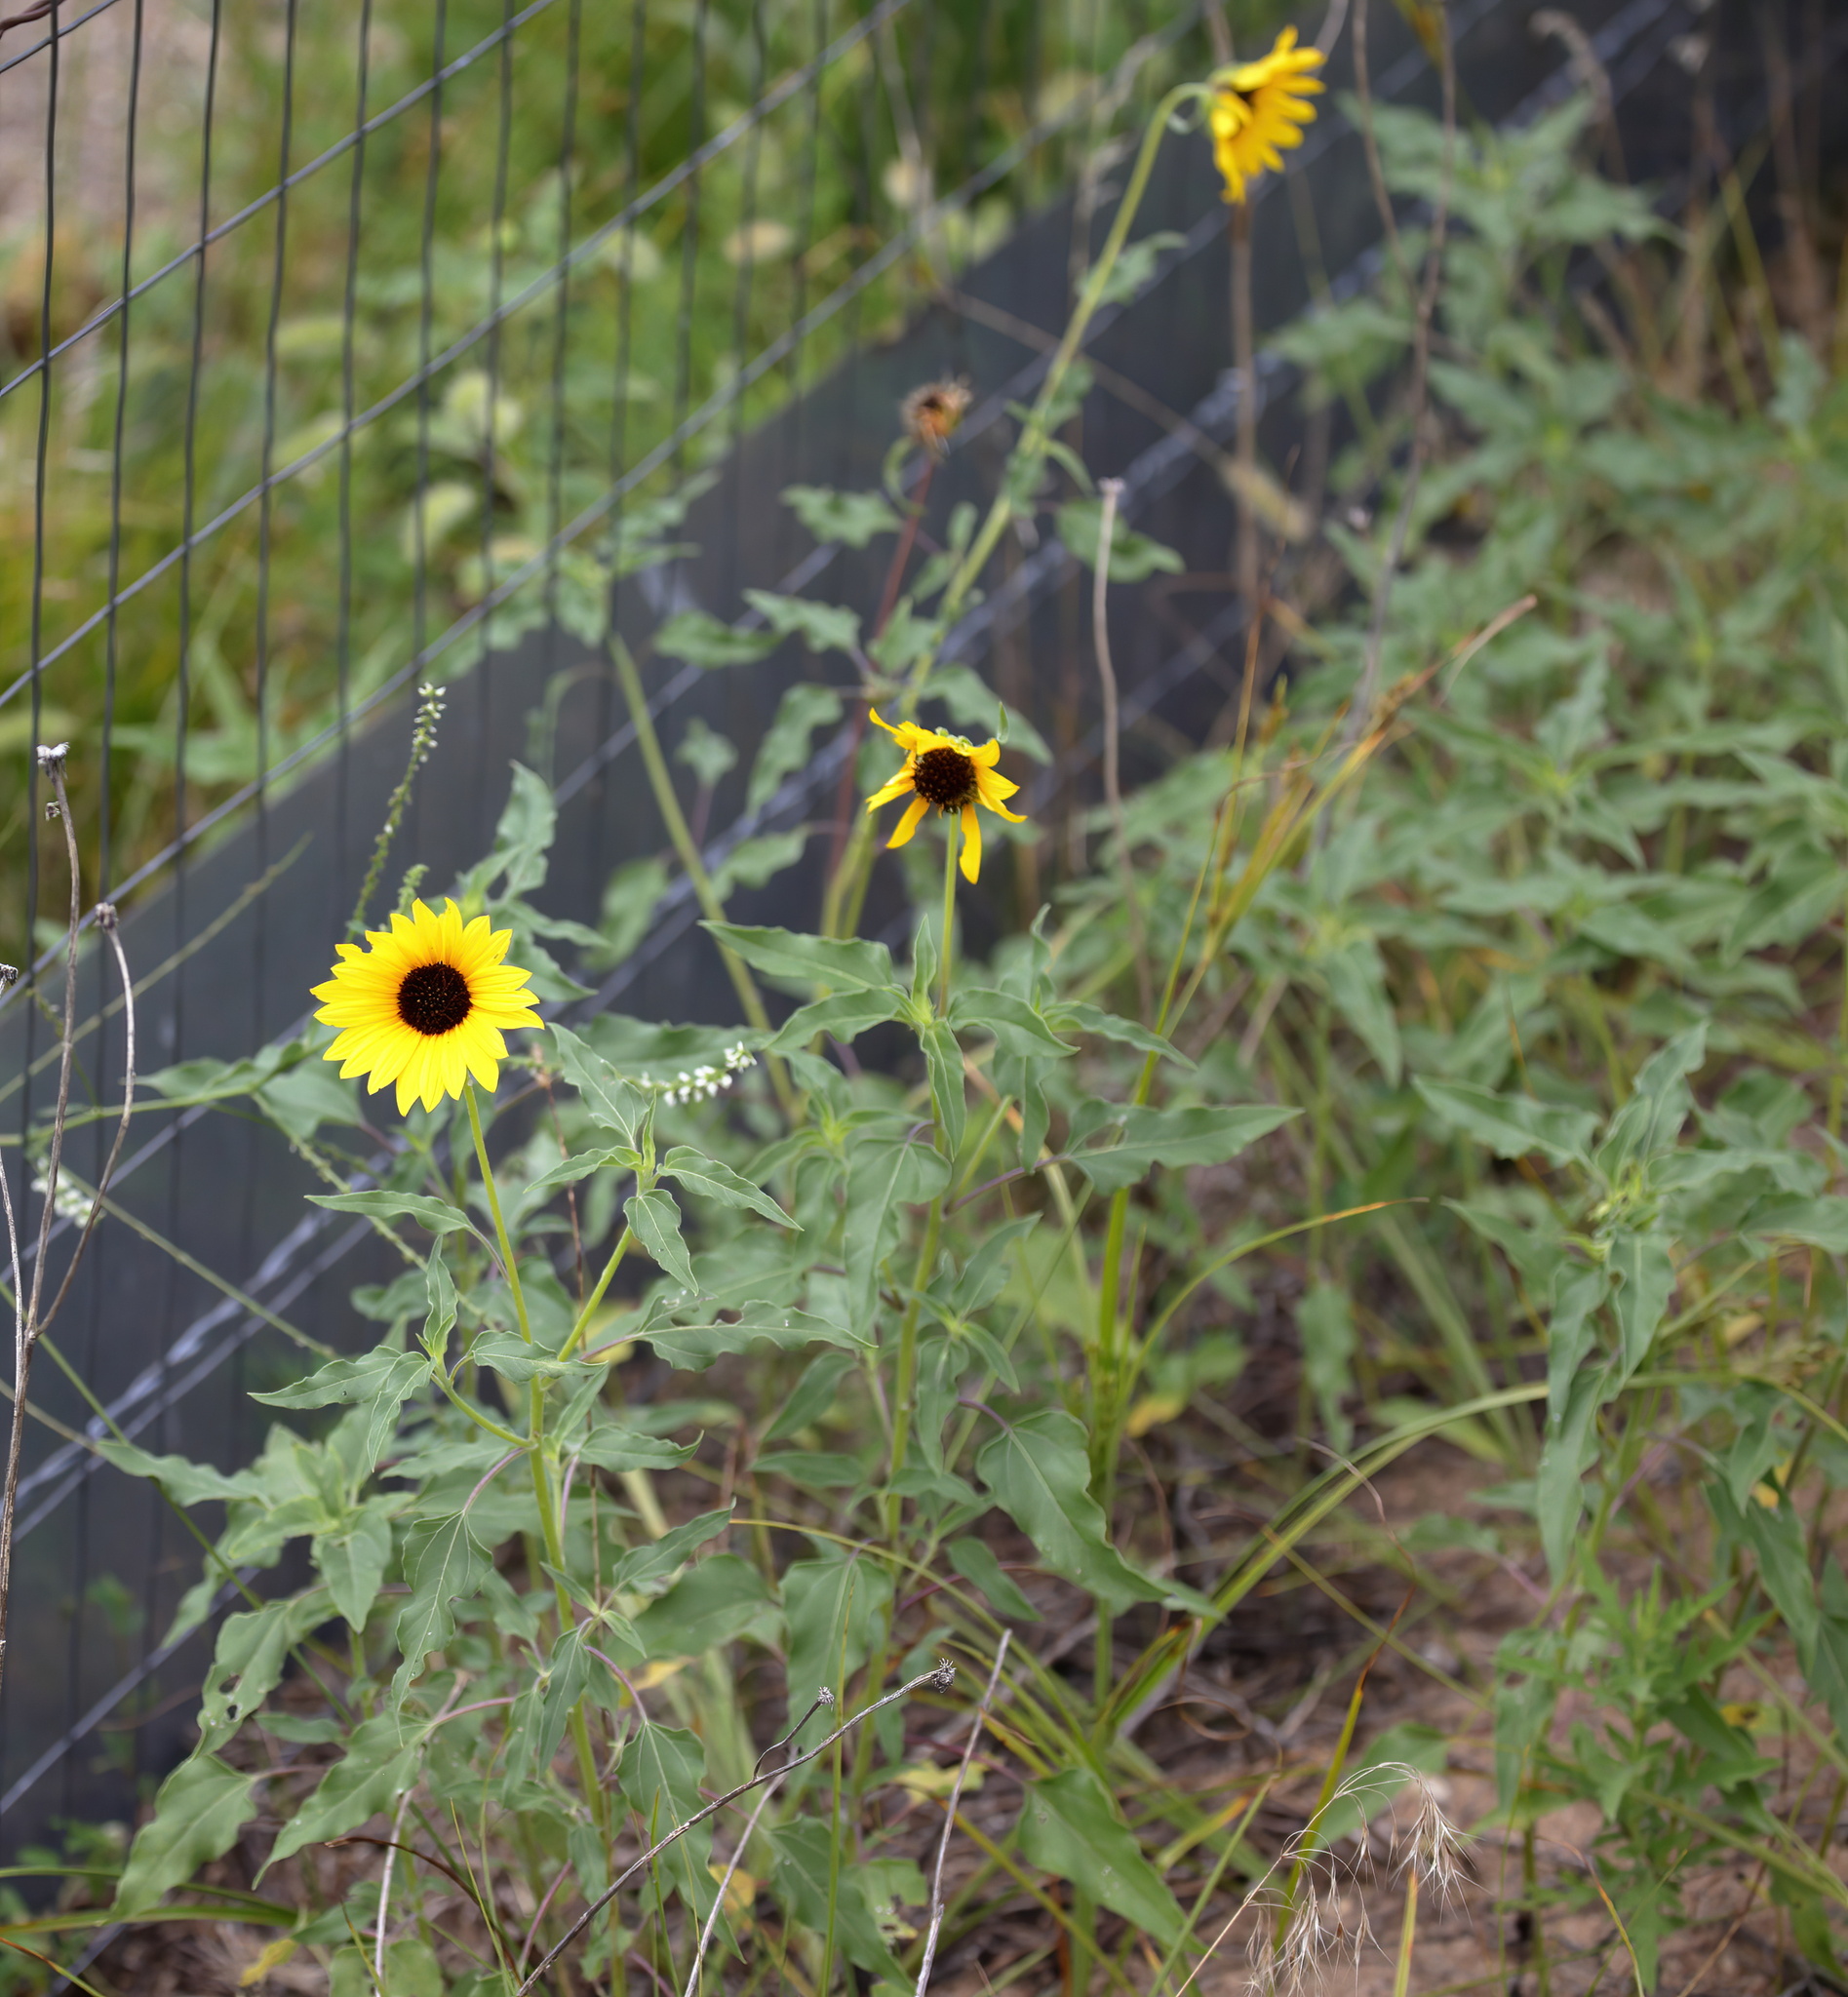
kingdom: Plantae
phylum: Tracheophyta
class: Magnoliopsida
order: Asterales
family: Asteraceae
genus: Helianthus
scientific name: Helianthus petiolaris
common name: Lesser sunflower
